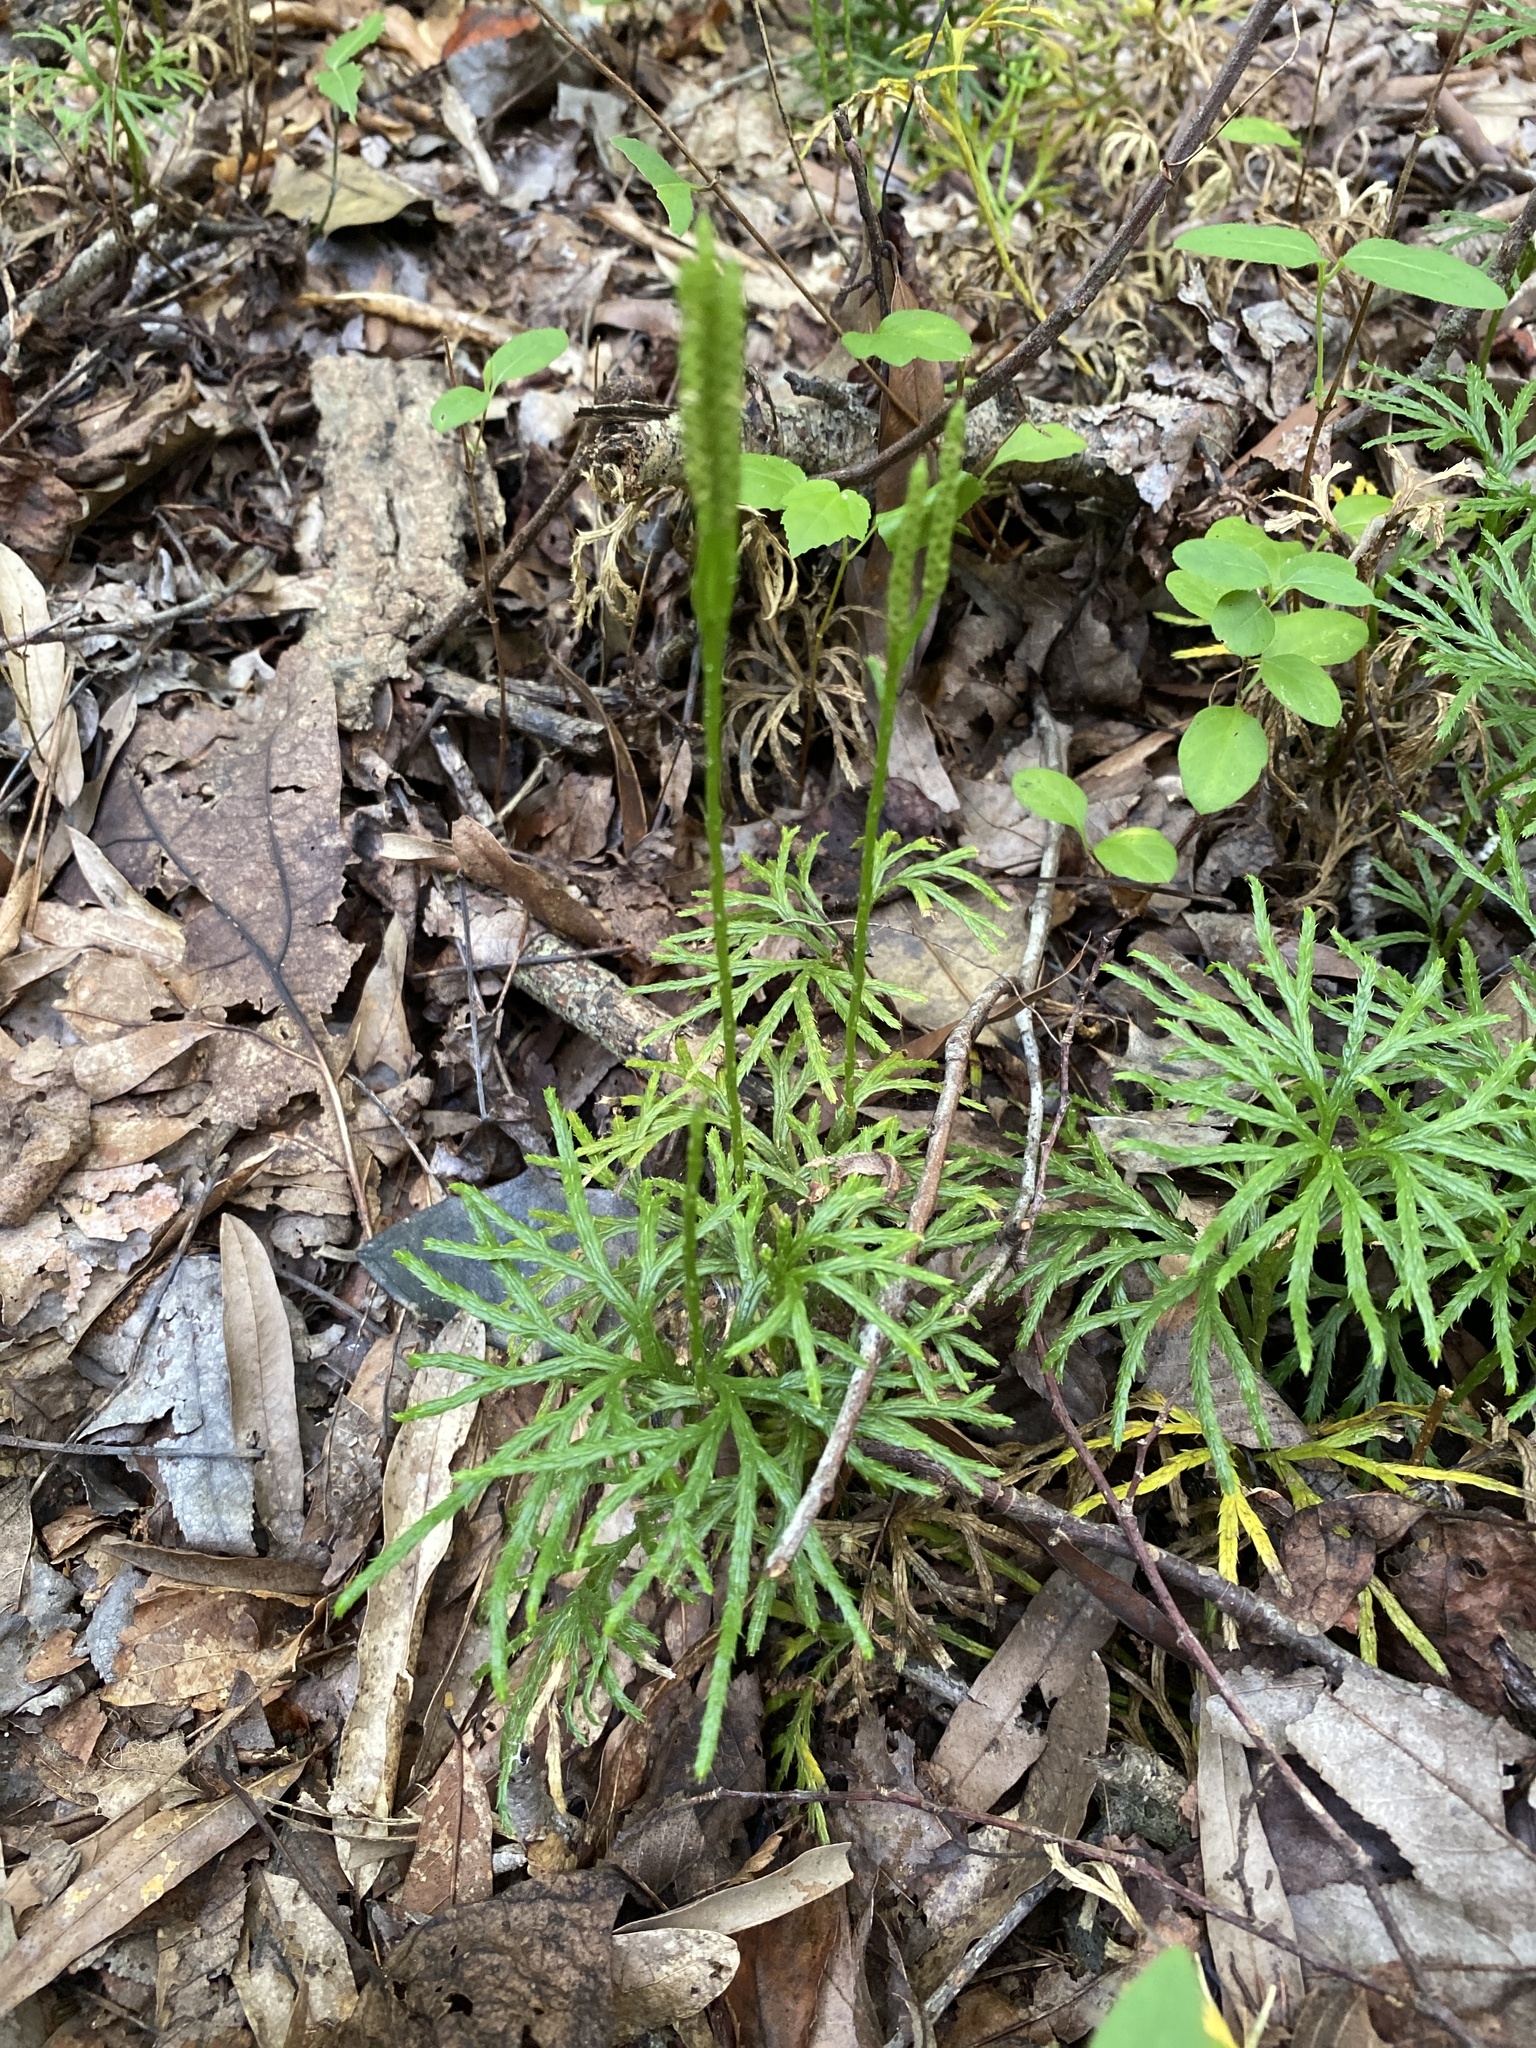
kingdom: Plantae
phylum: Tracheophyta
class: Lycopodiopsida
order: Lycopodiales
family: Lycopodiaceae
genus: Diphasiastrum
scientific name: Diphasiastrum digitatum
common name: Southern running-pine
